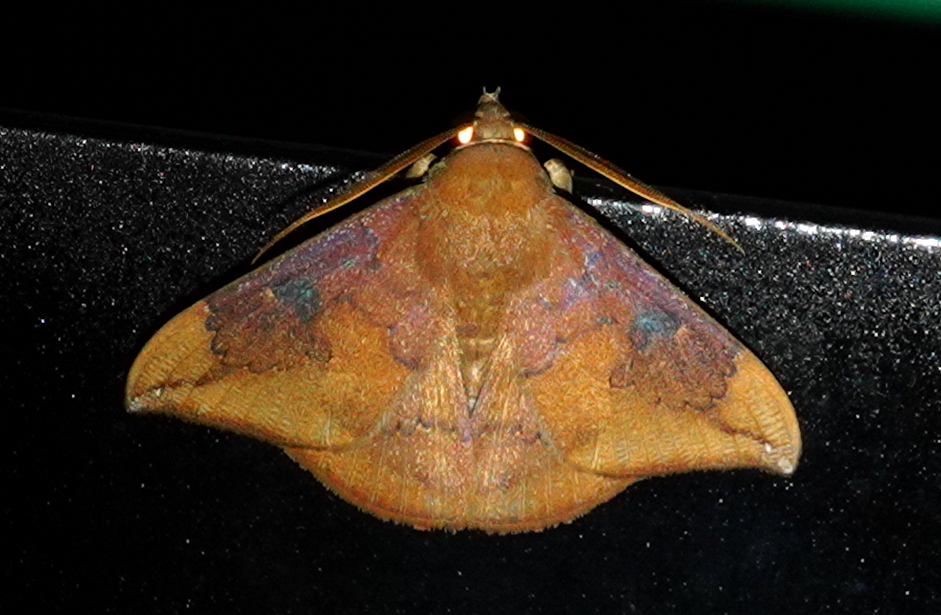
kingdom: Animalia
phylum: Arthropoda
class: Insecta
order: Lepidoptera
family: Erebidae
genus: Platyja
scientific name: Platyja umminia
